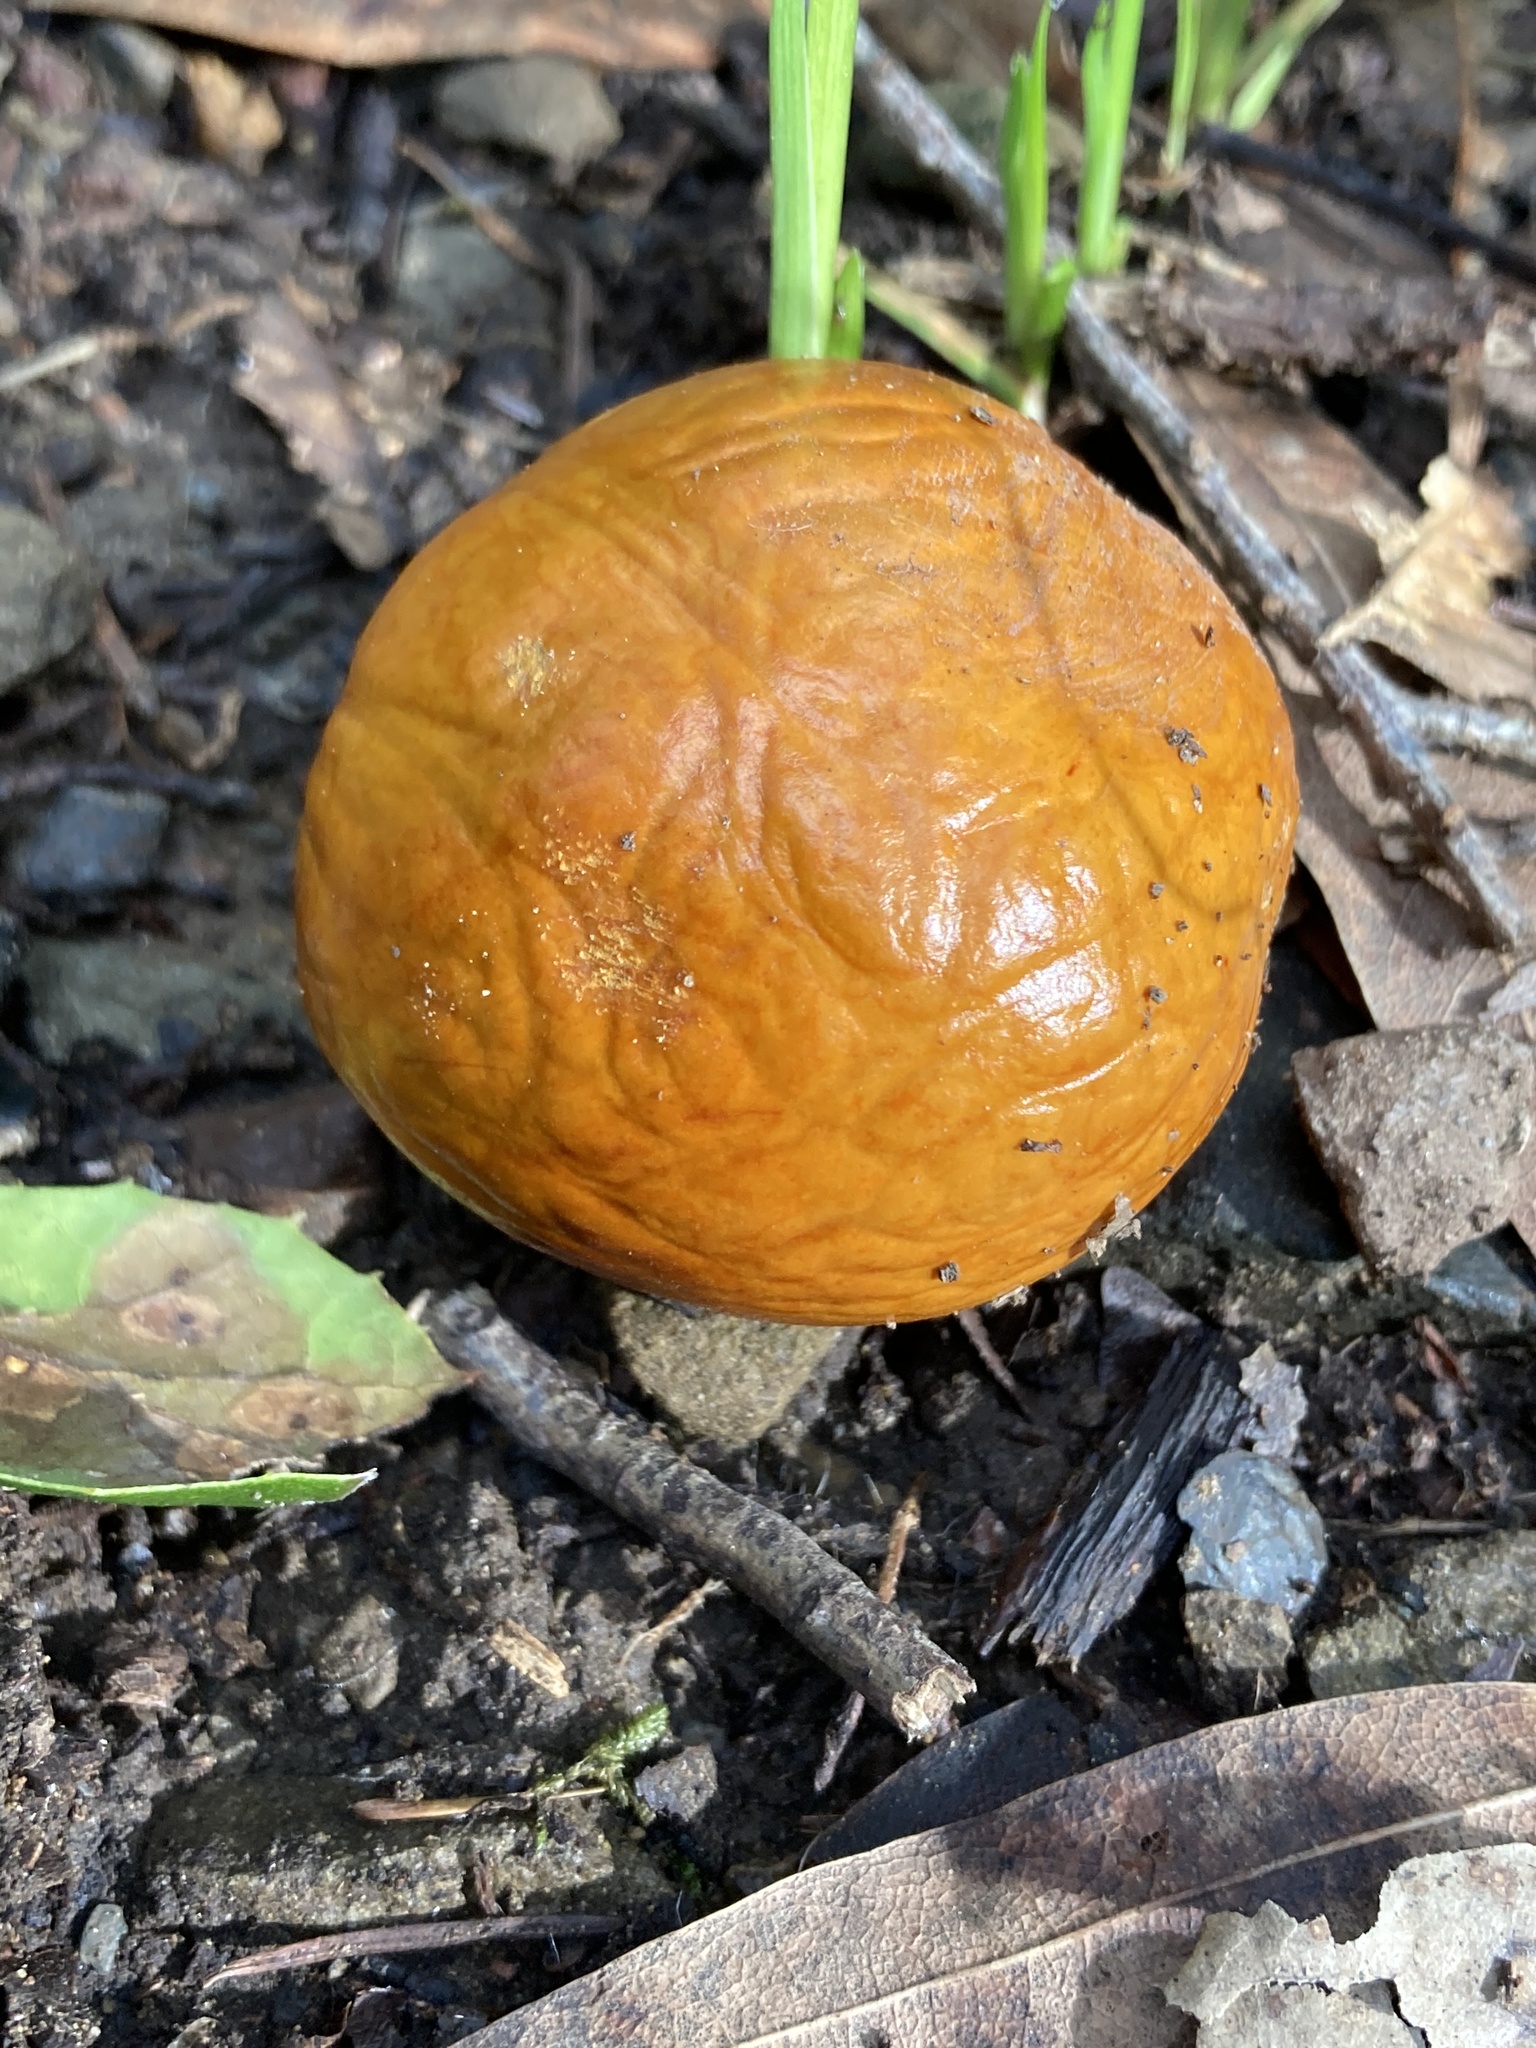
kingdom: Plantae
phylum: Tracheophyta
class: Magnoliopsida
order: Sapindales
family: Sapindaceae
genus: Aesculus
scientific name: Aesculus californica
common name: California buckeye
